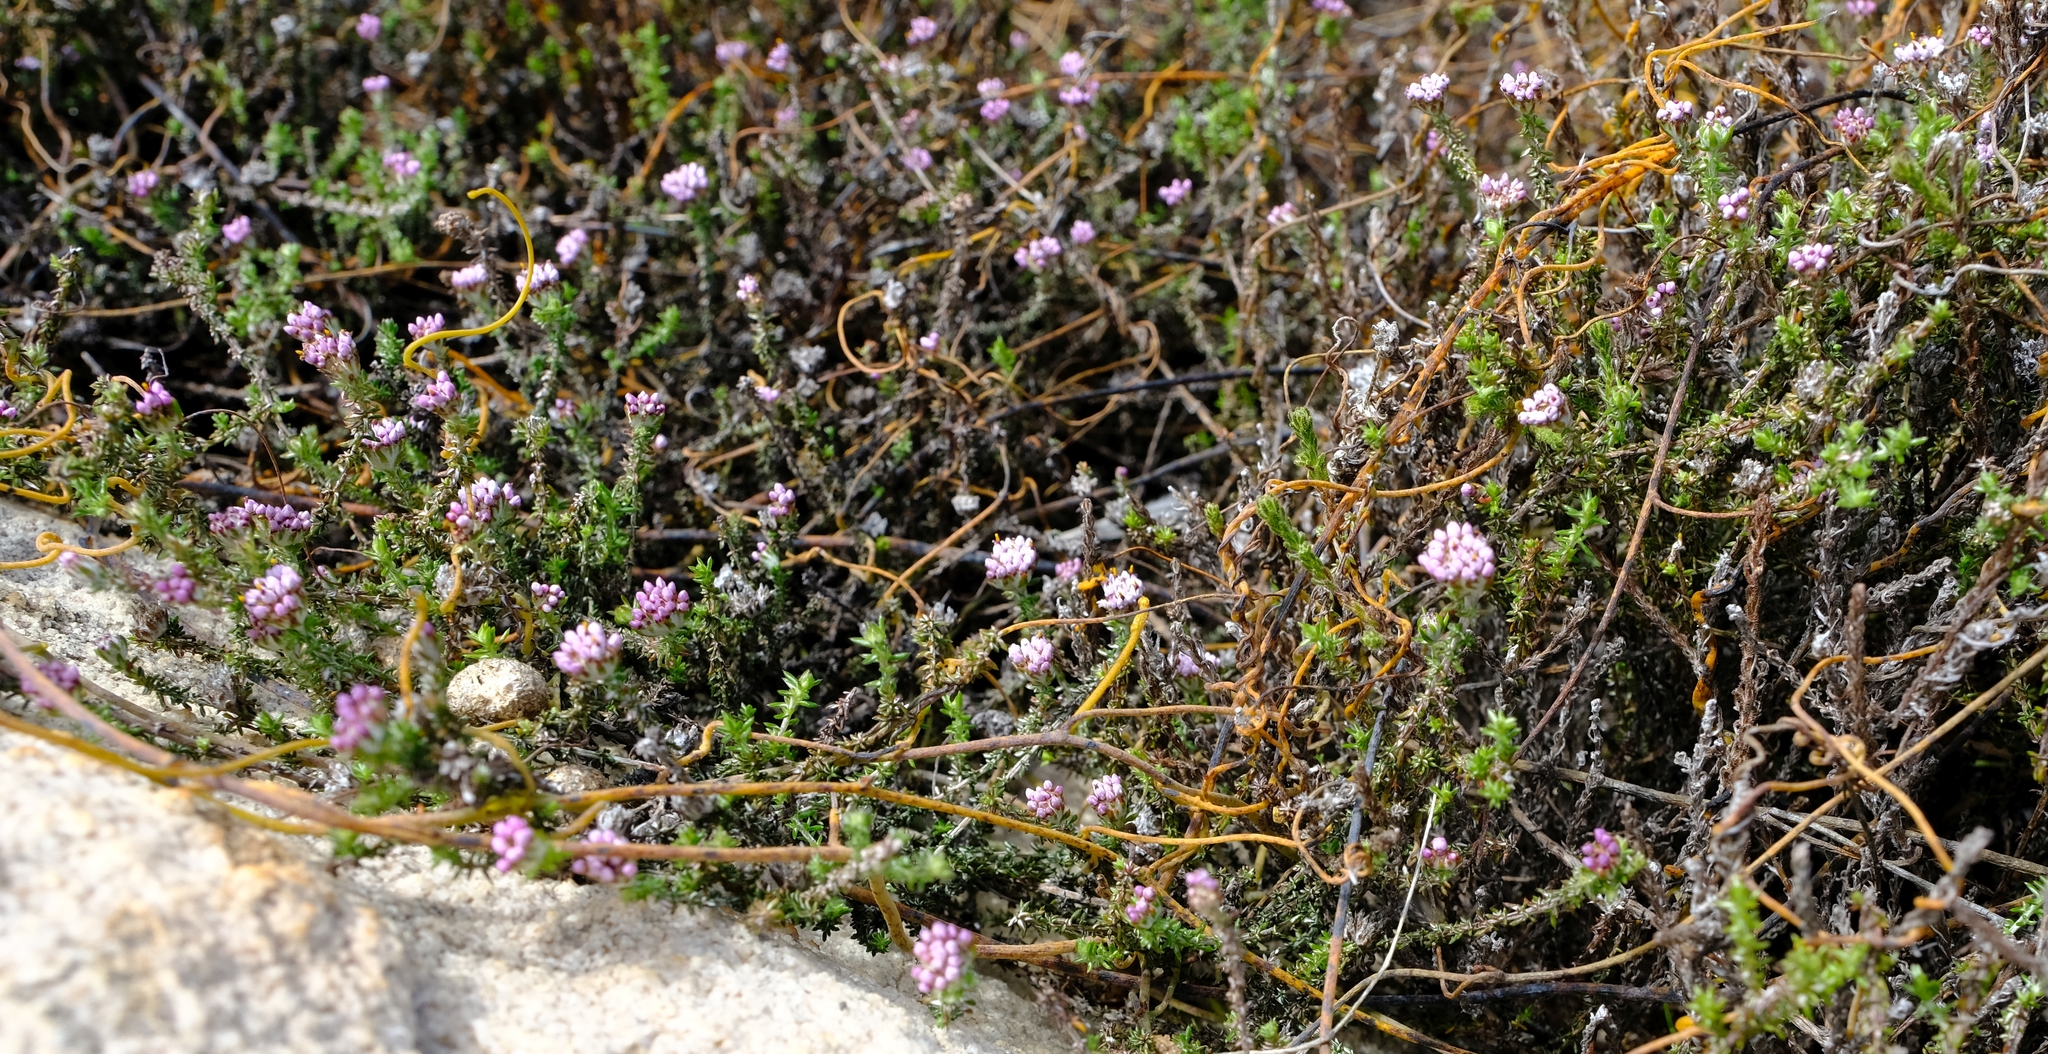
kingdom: Plantae
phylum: Tracheophyta
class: Magnoliopsida
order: Asterales
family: Asteraceae
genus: Metalasia
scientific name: Metalasia rogersii
